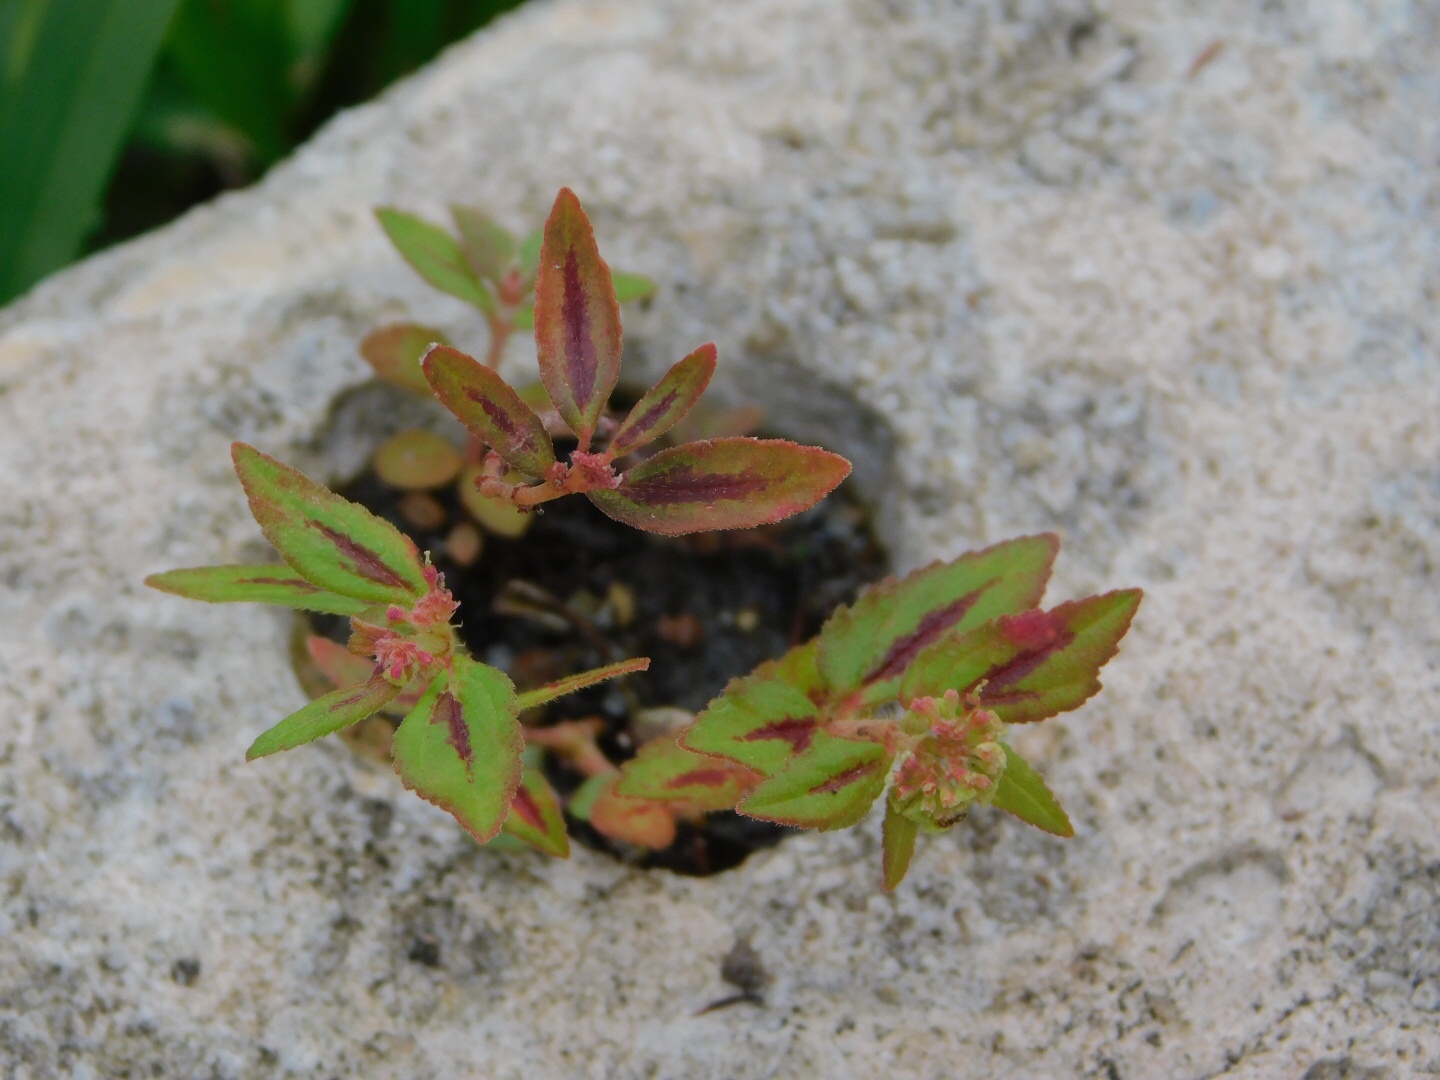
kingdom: Plantae
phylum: Tracheophyta
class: Magnoliopsida
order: Malpighiales
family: Euphorbiaceae
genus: Euphorbia
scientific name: Euphorbia hirta
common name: Pillpod sandmat
